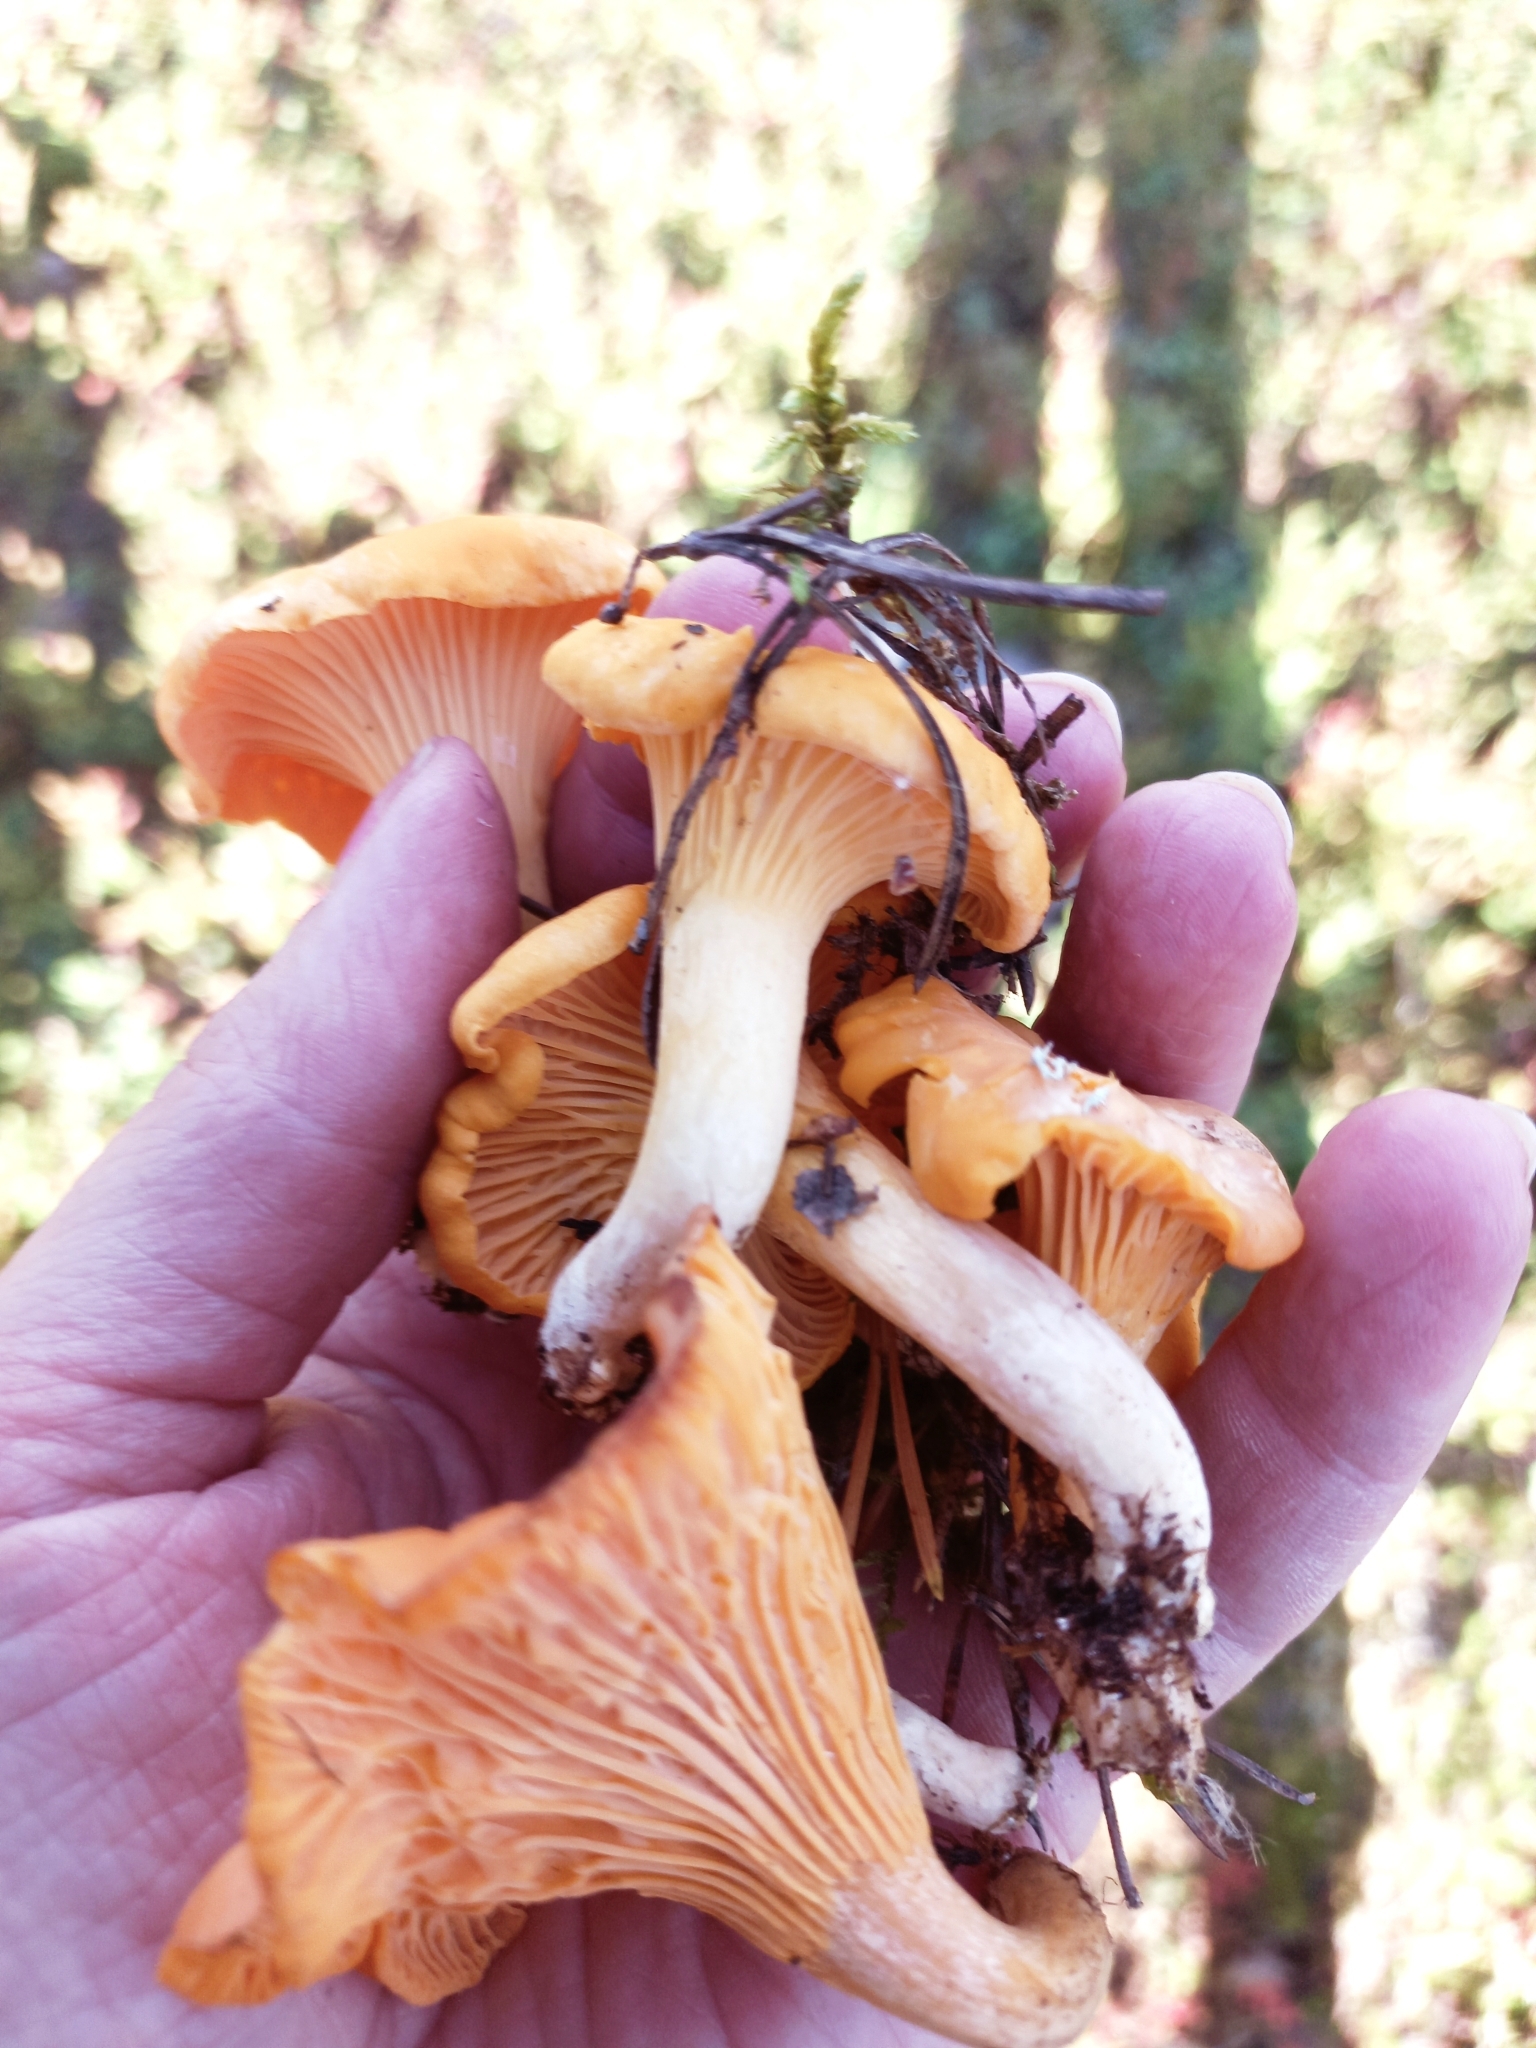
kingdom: Fungi
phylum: Basidiomycota
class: Agaricomycetes
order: Cantharellales
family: Hydnaceae
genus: Cantharellus
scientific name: Cantharellus cibarius
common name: Chanterelle
